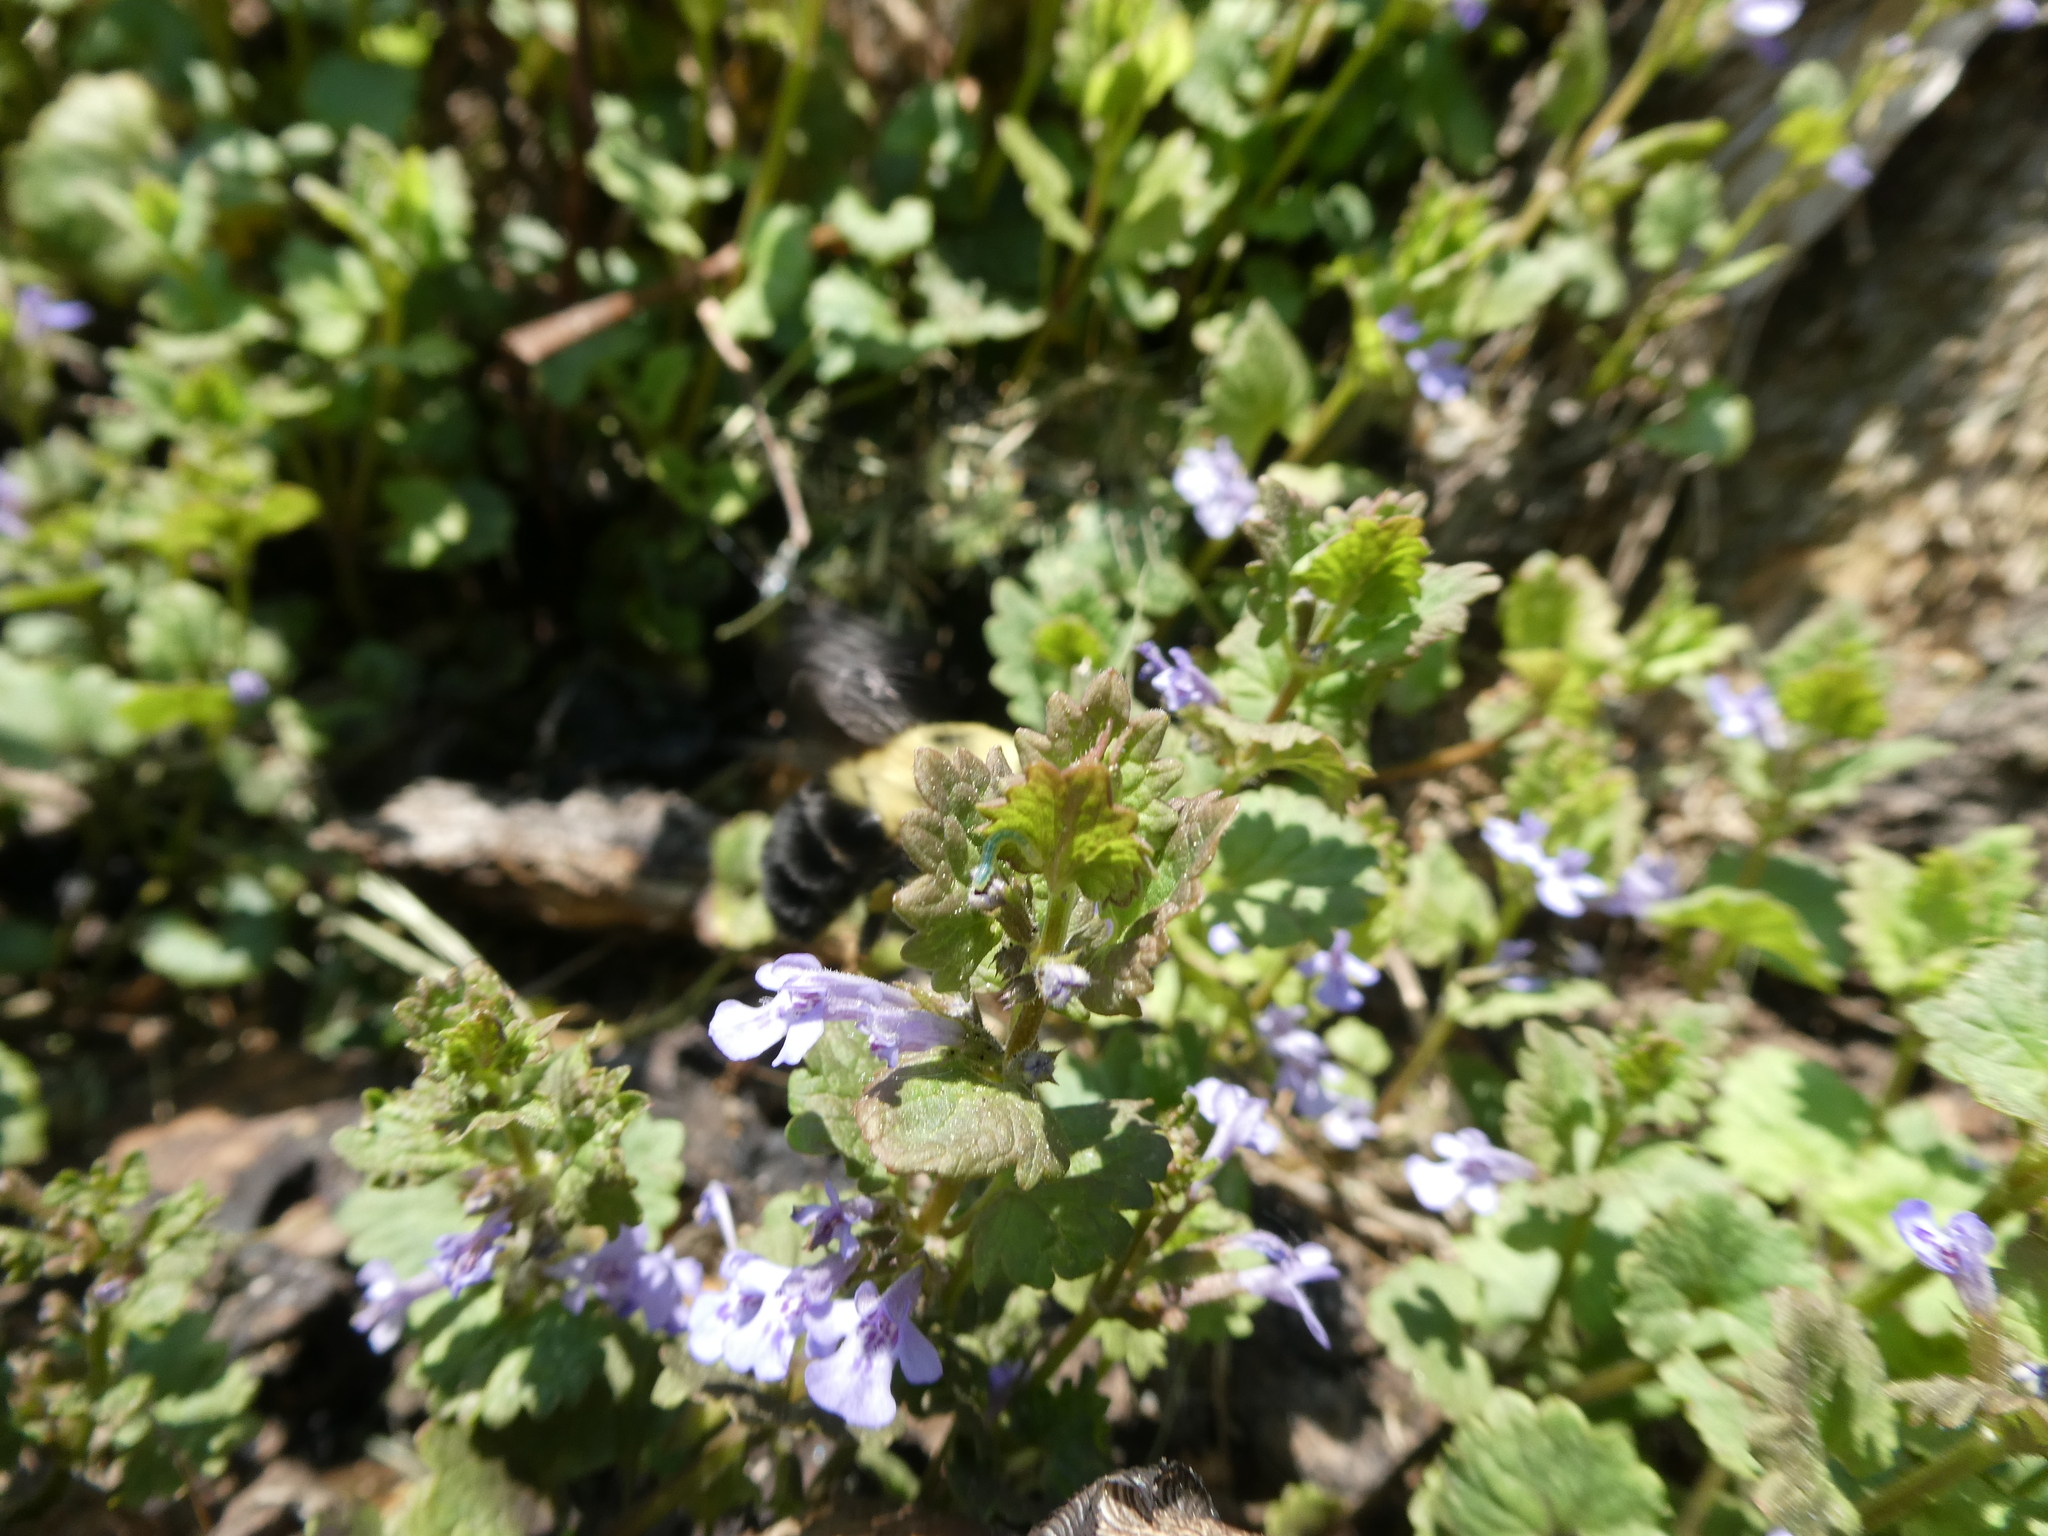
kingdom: Animalia
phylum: Arthropoda
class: Insecta
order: Hymenoptera
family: Apidae
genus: Bombus
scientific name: Bombus bimaculatus
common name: Two-spotted bumble bee
